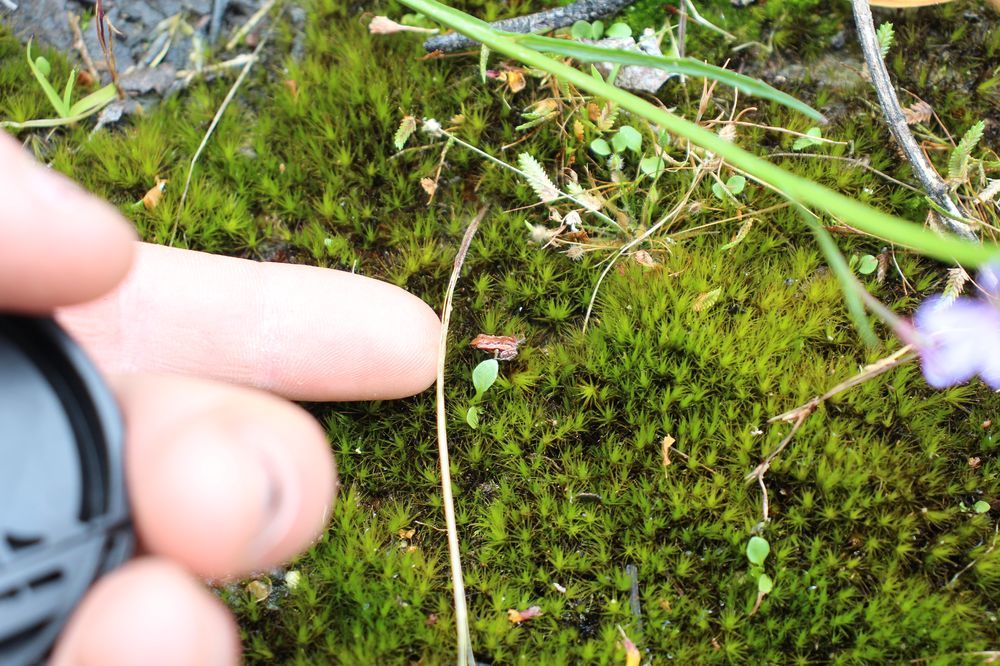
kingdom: Animalia
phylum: Chordata
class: Amphibia
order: Anura
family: Myobatrachidae
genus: Geocrinia
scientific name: Geocrinia leai
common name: Lea’s frog
